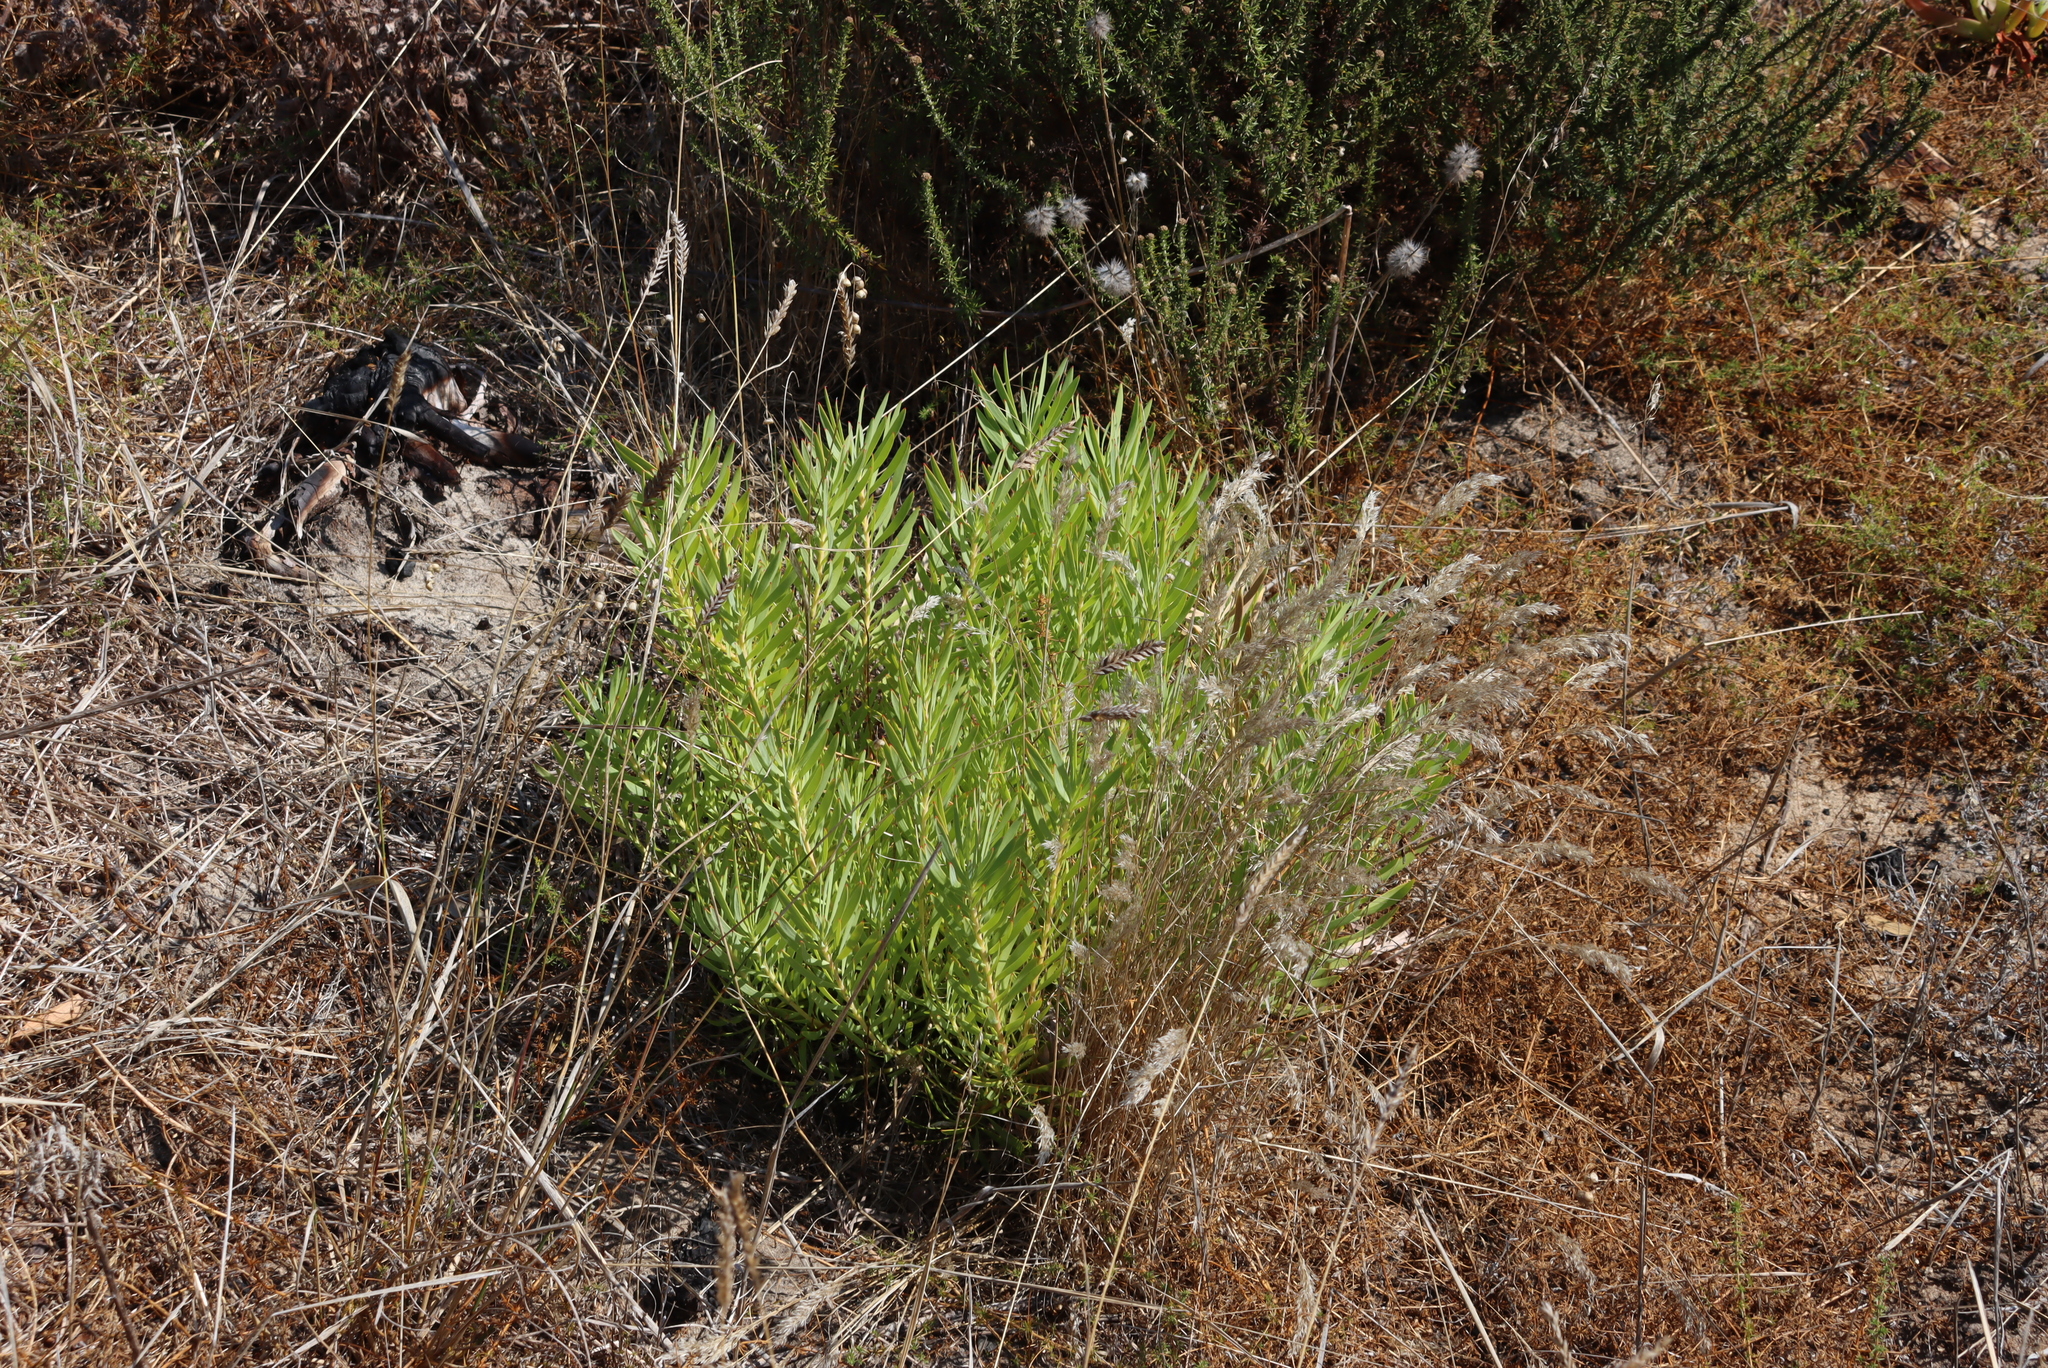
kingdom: Plantae
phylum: Tracheophyta
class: Magnoliopsida
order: Proteales
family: Proteaceae
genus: Leucadendron
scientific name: Leucadendron salignum
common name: Common sunshine conebush
